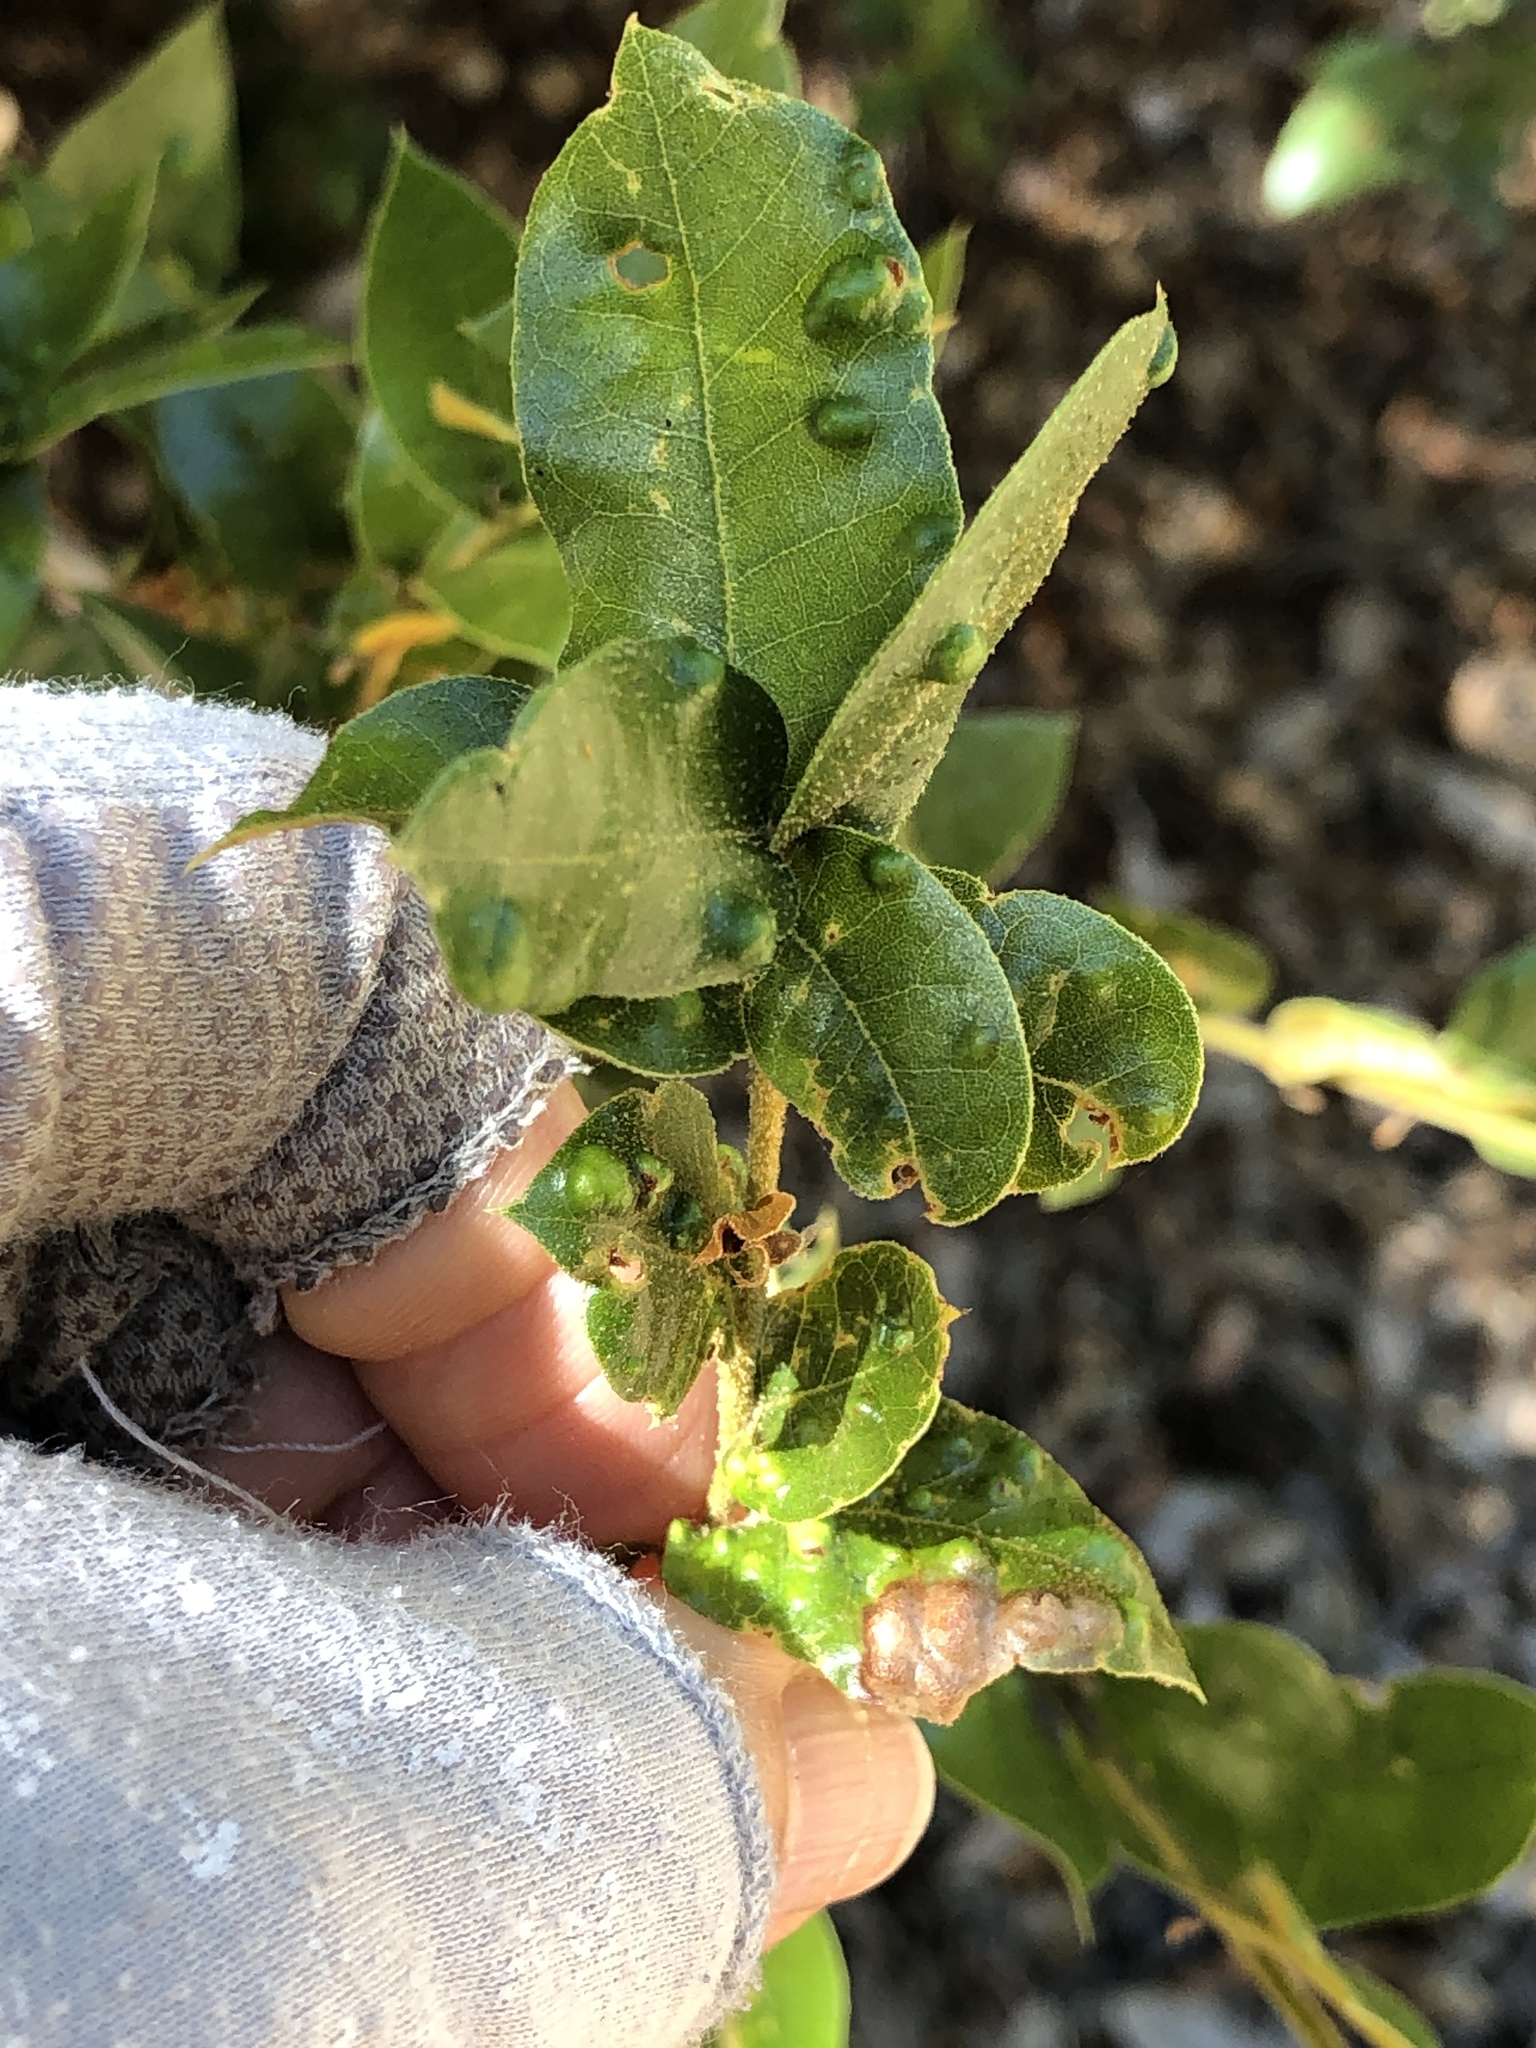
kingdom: Animalia
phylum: Arthropoda
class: Arachnida
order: Trombidiformes
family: Eriophyidae
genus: Aceria
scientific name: Aceria
